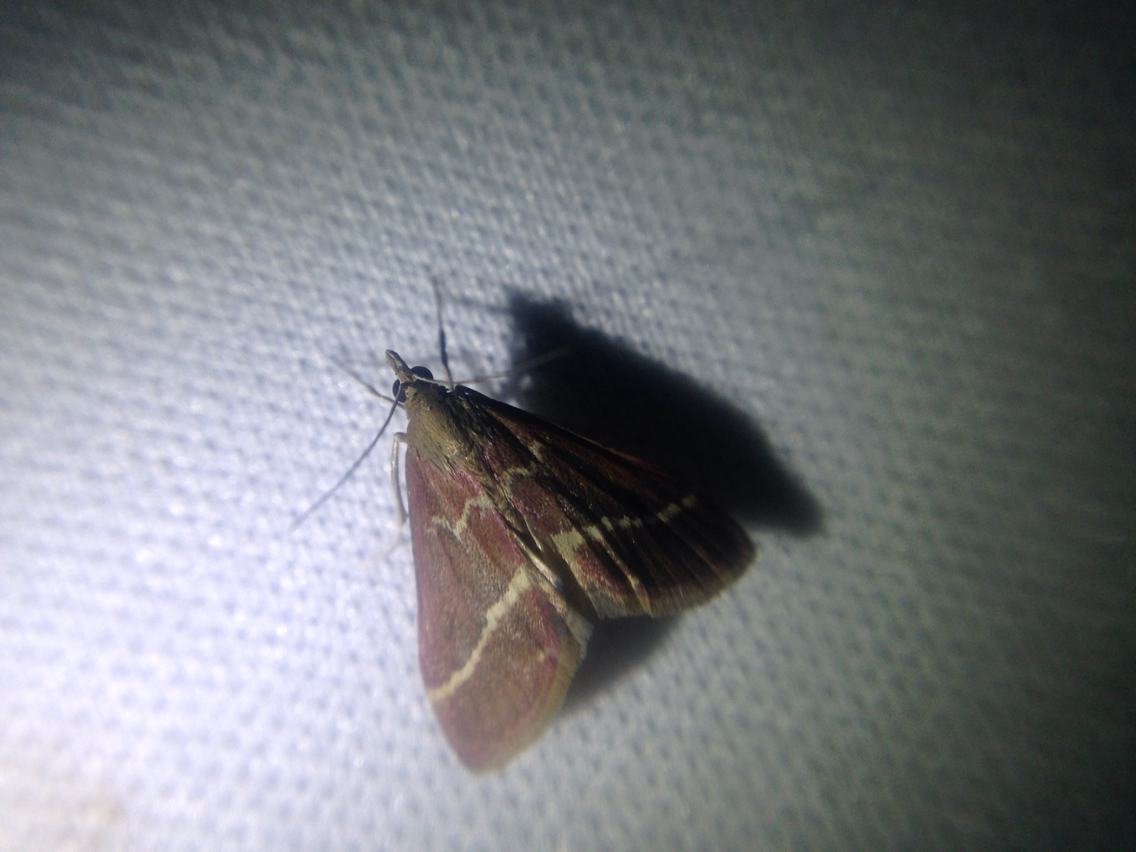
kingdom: Animalia
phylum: Arthropoda
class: Insecta
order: Lepidoptera
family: Crambidae
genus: Pyrausta
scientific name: Pyrausta volupialis
